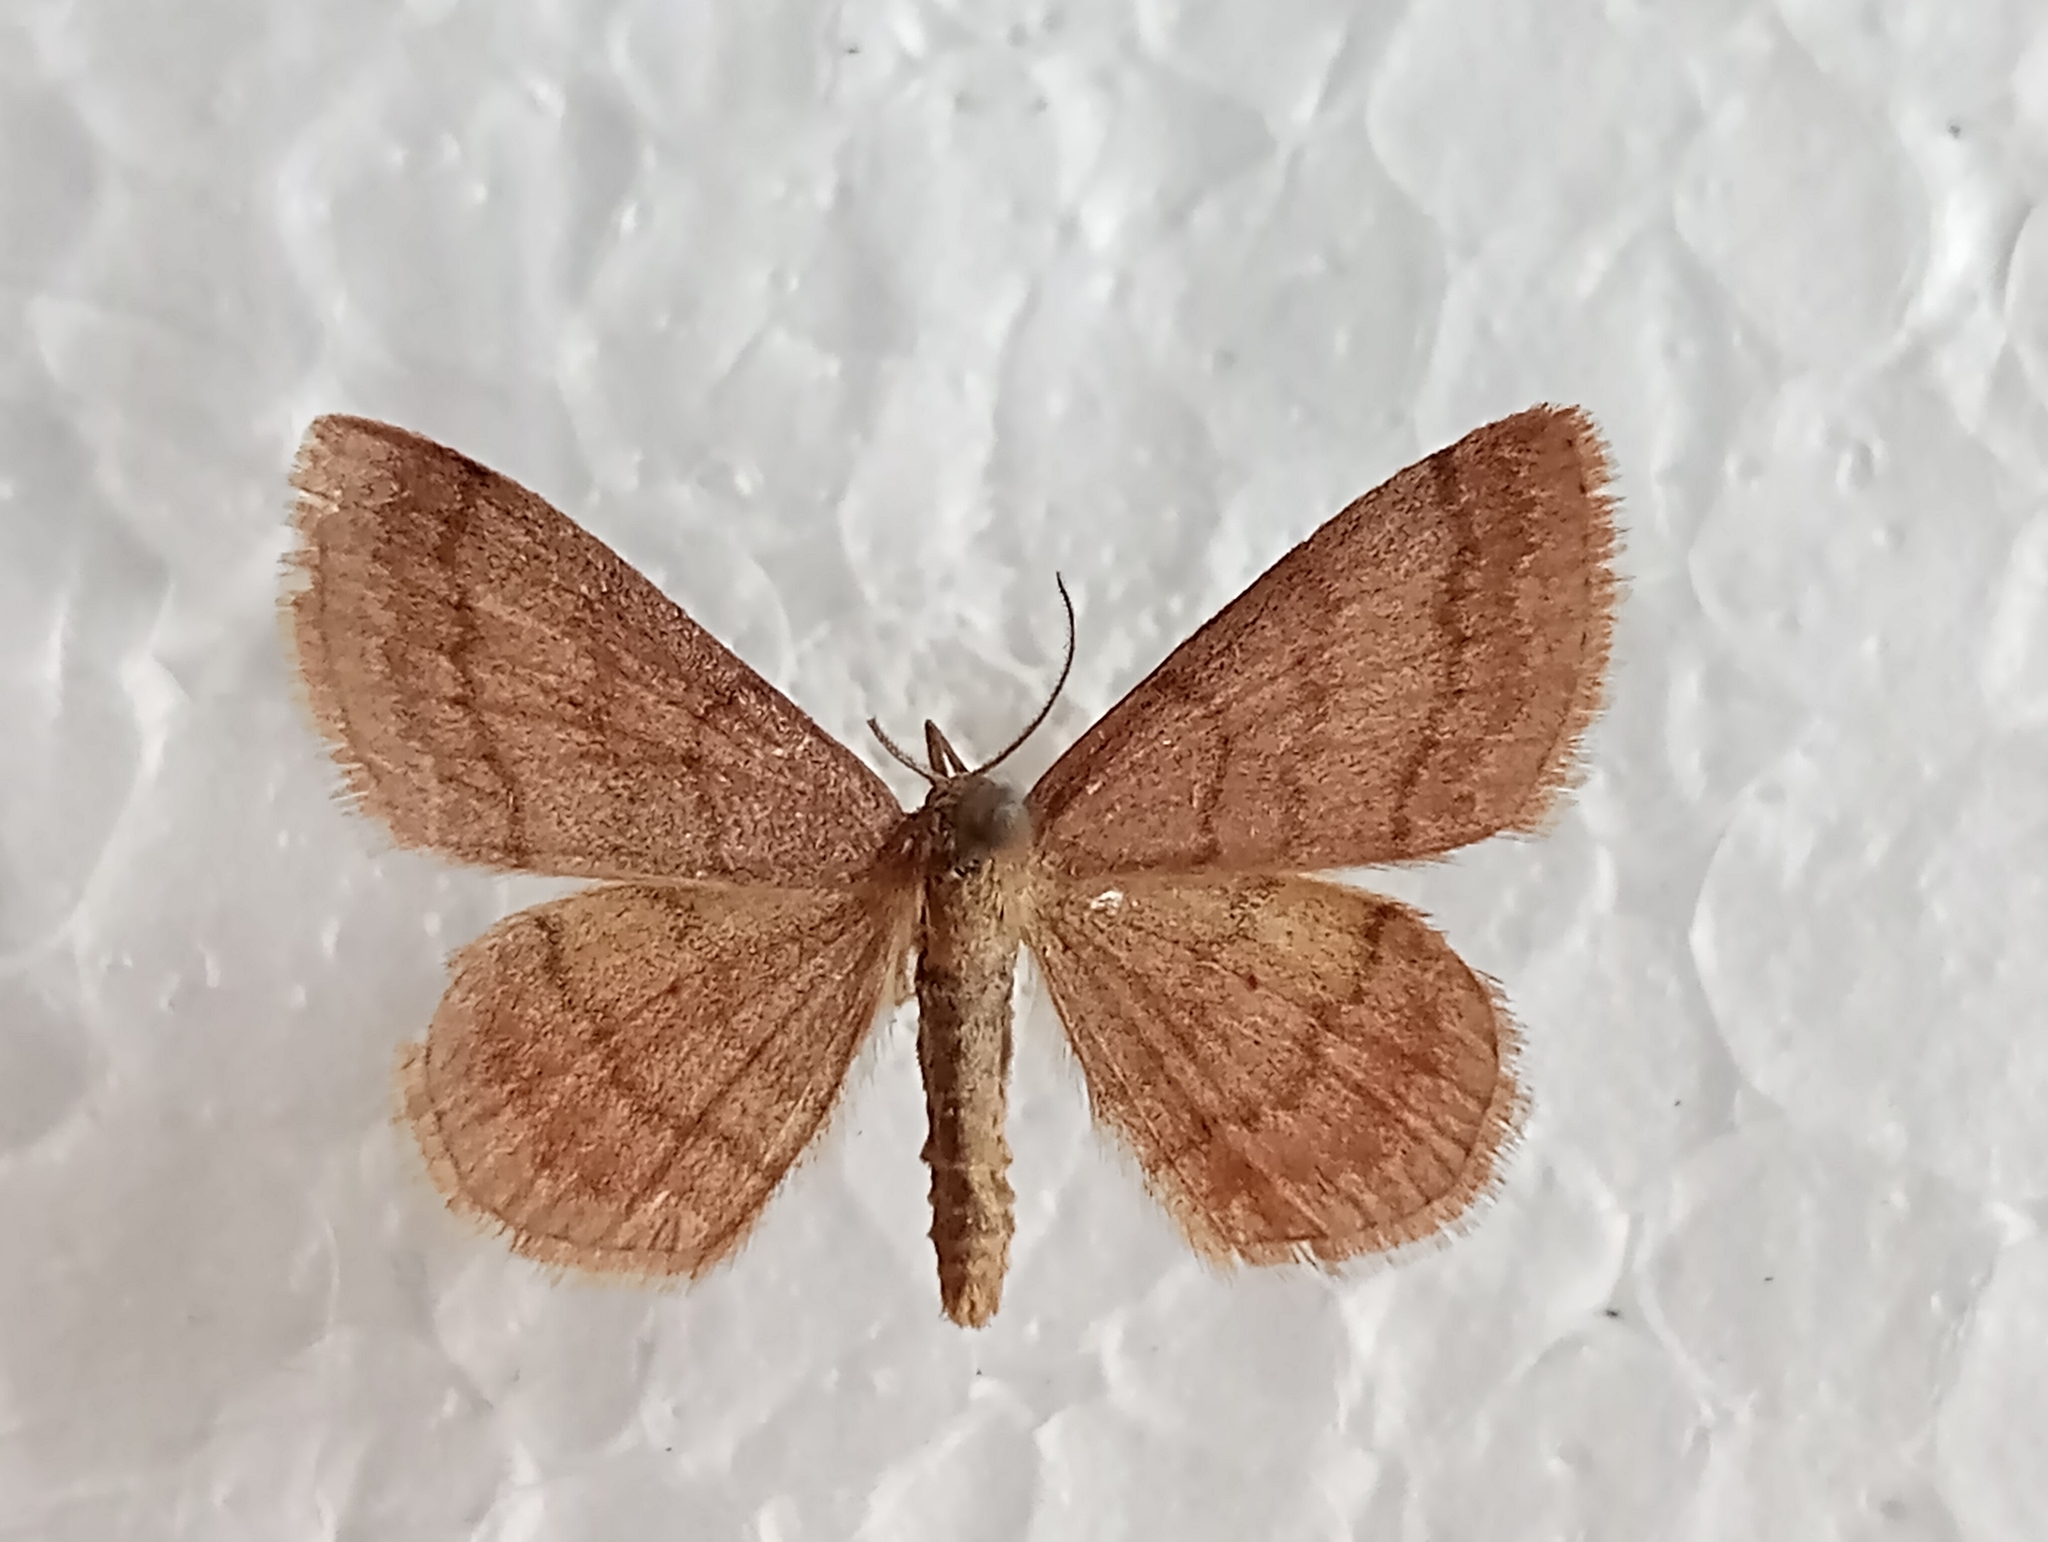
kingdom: Animalia
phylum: Arthropoda
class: Insecta
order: Lepidoptera
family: Geometridae
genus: Scopula
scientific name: Scopula rubiginata
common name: Tawny wave
